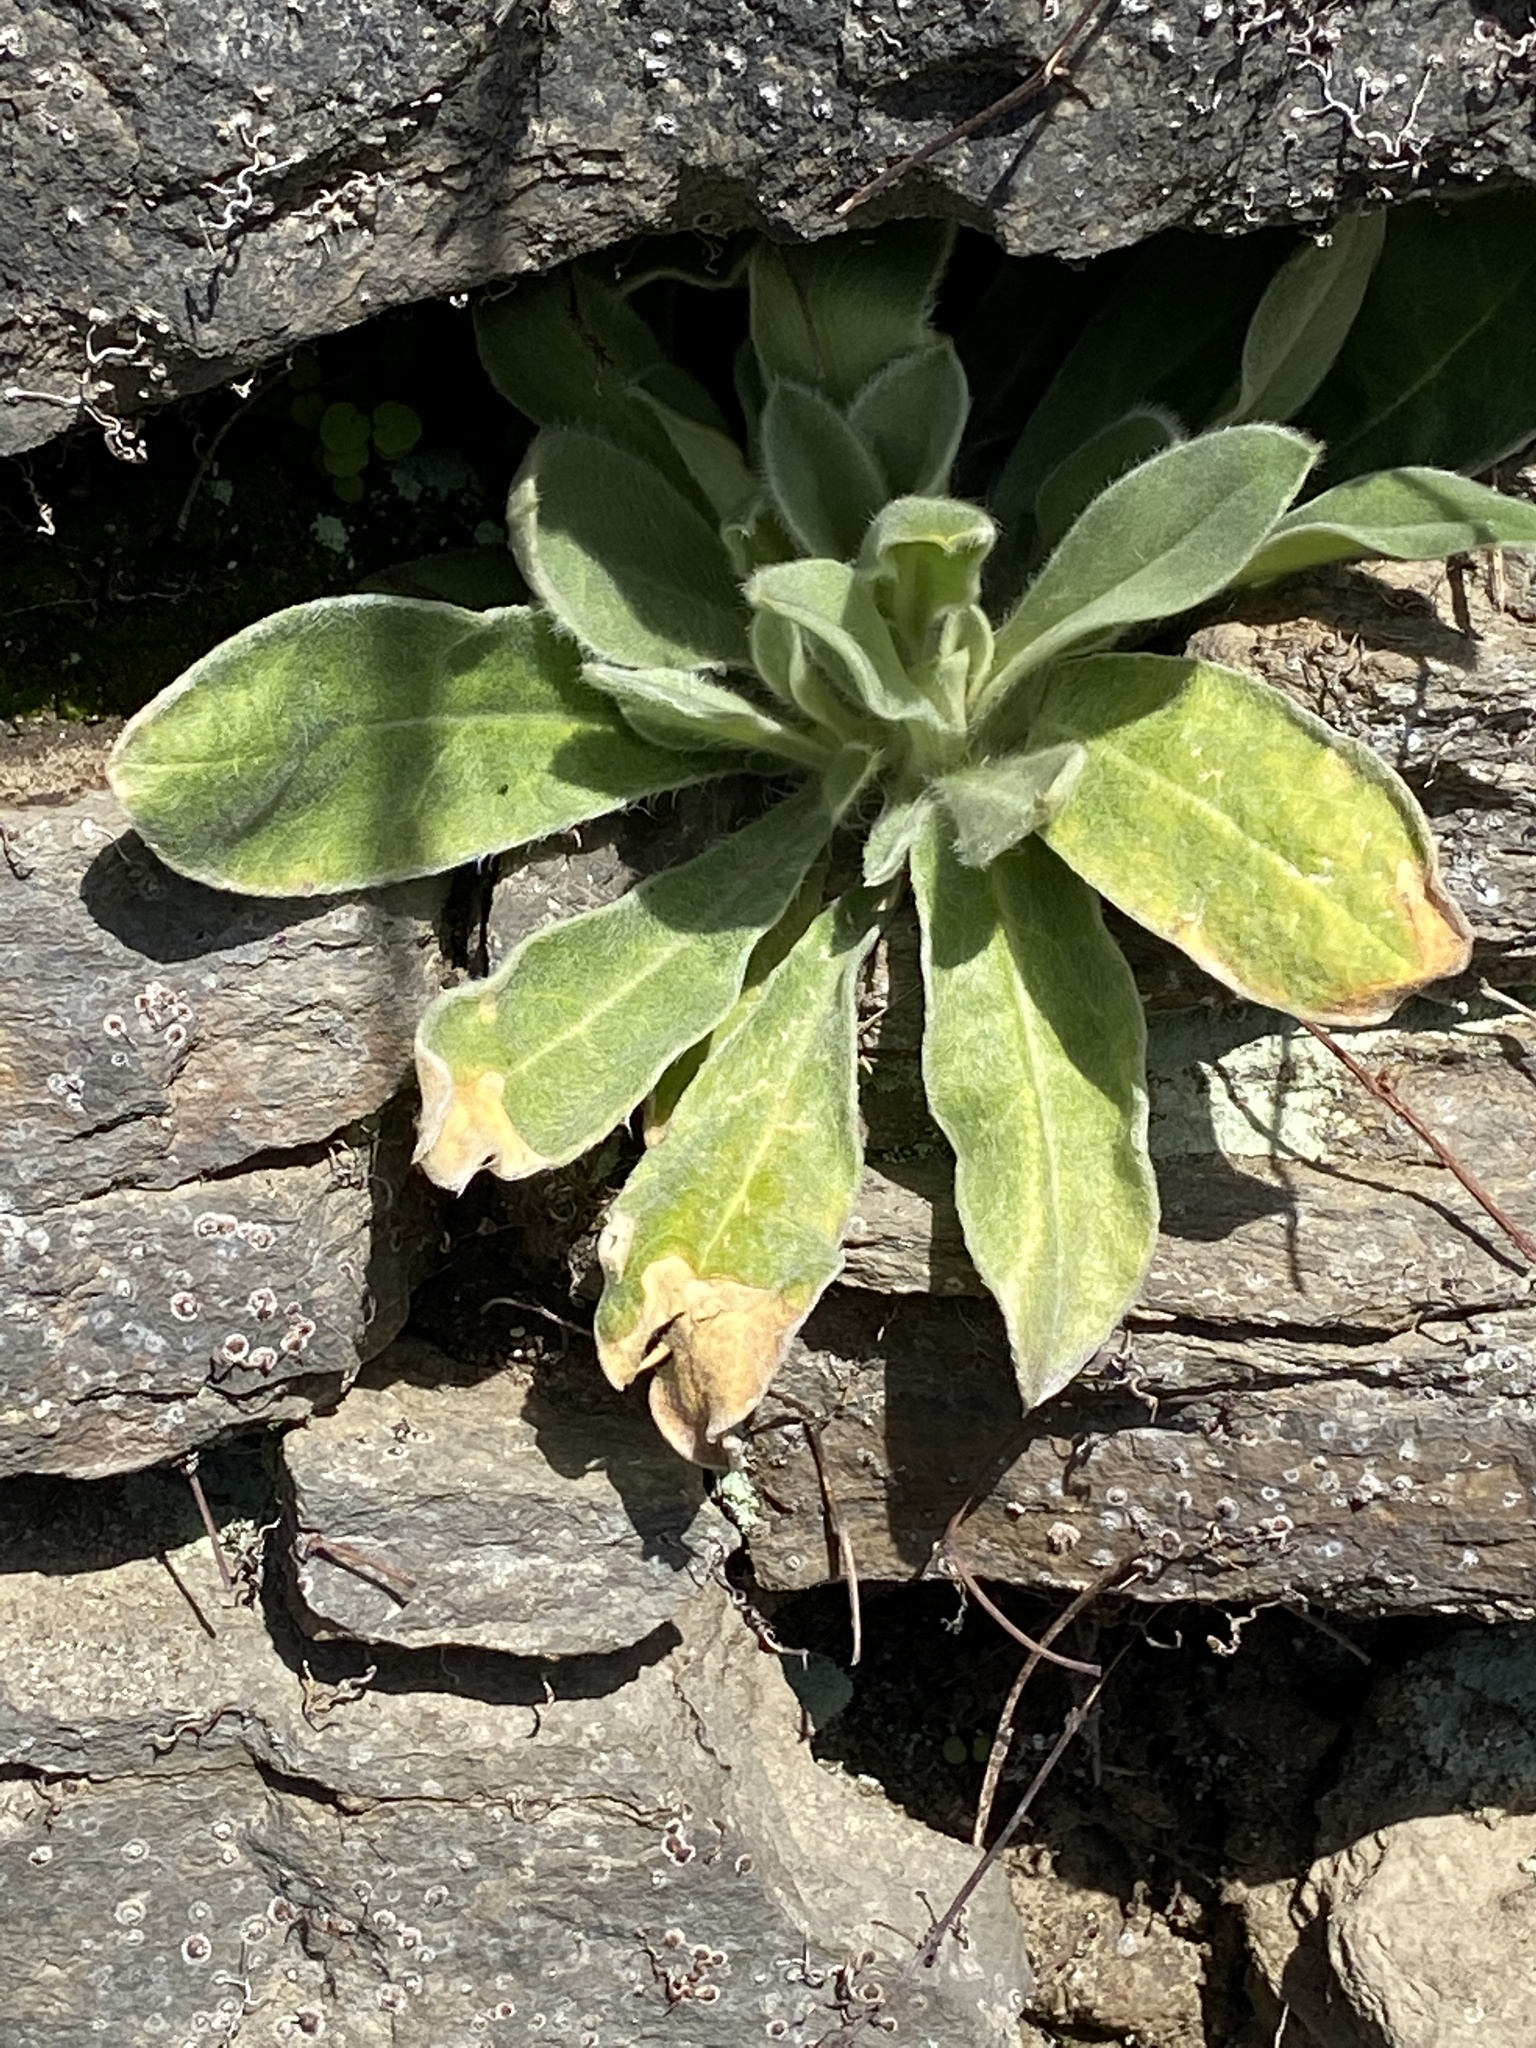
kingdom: Plantae
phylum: Tracheophyta
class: Magnoliopsida
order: Caryophyllales
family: Caryophyllaceae
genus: Silene
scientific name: Silene coronaria
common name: Rose campion
